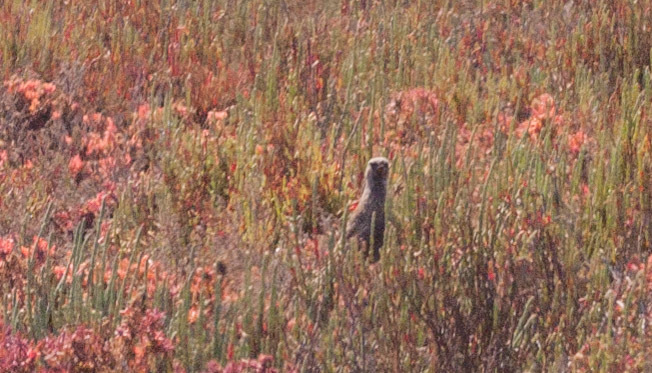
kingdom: Animalia
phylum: Chordata
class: Aves
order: Passeriformes
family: Locustellidae
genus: Megalurus
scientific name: Megalurus cruralis
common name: Brown songlark
